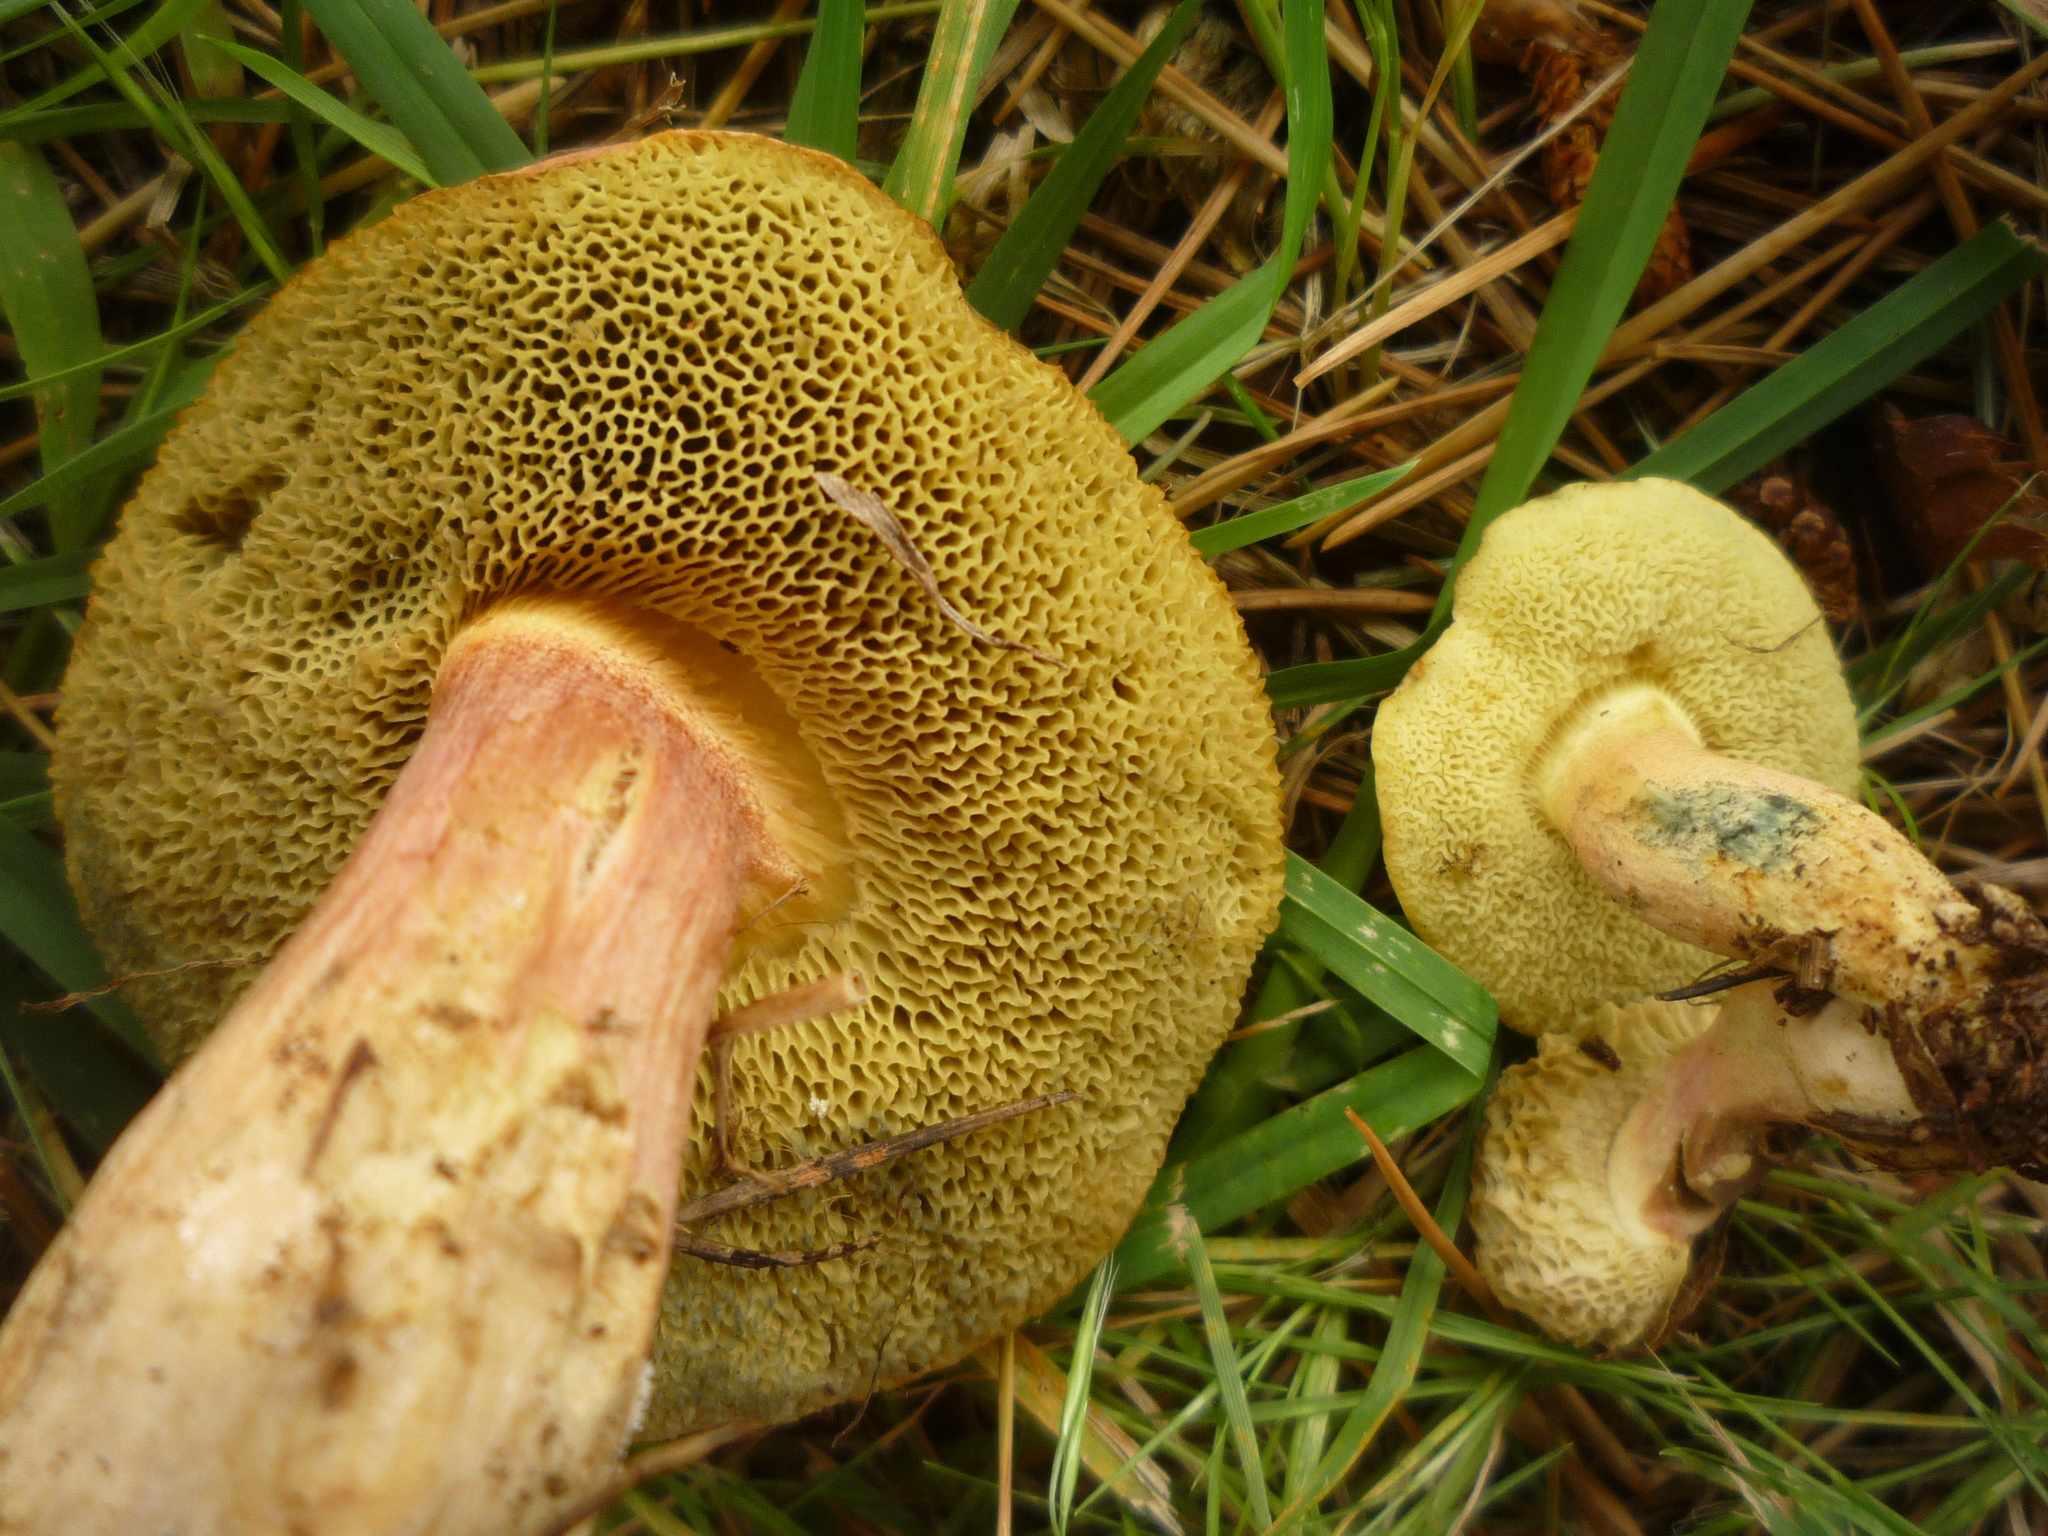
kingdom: Fungi
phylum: Basidiomycota
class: Agaricomycetes
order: Boletales
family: Boletaceae
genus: Xerocomellus
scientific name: Xerocomellus cisalpinus
